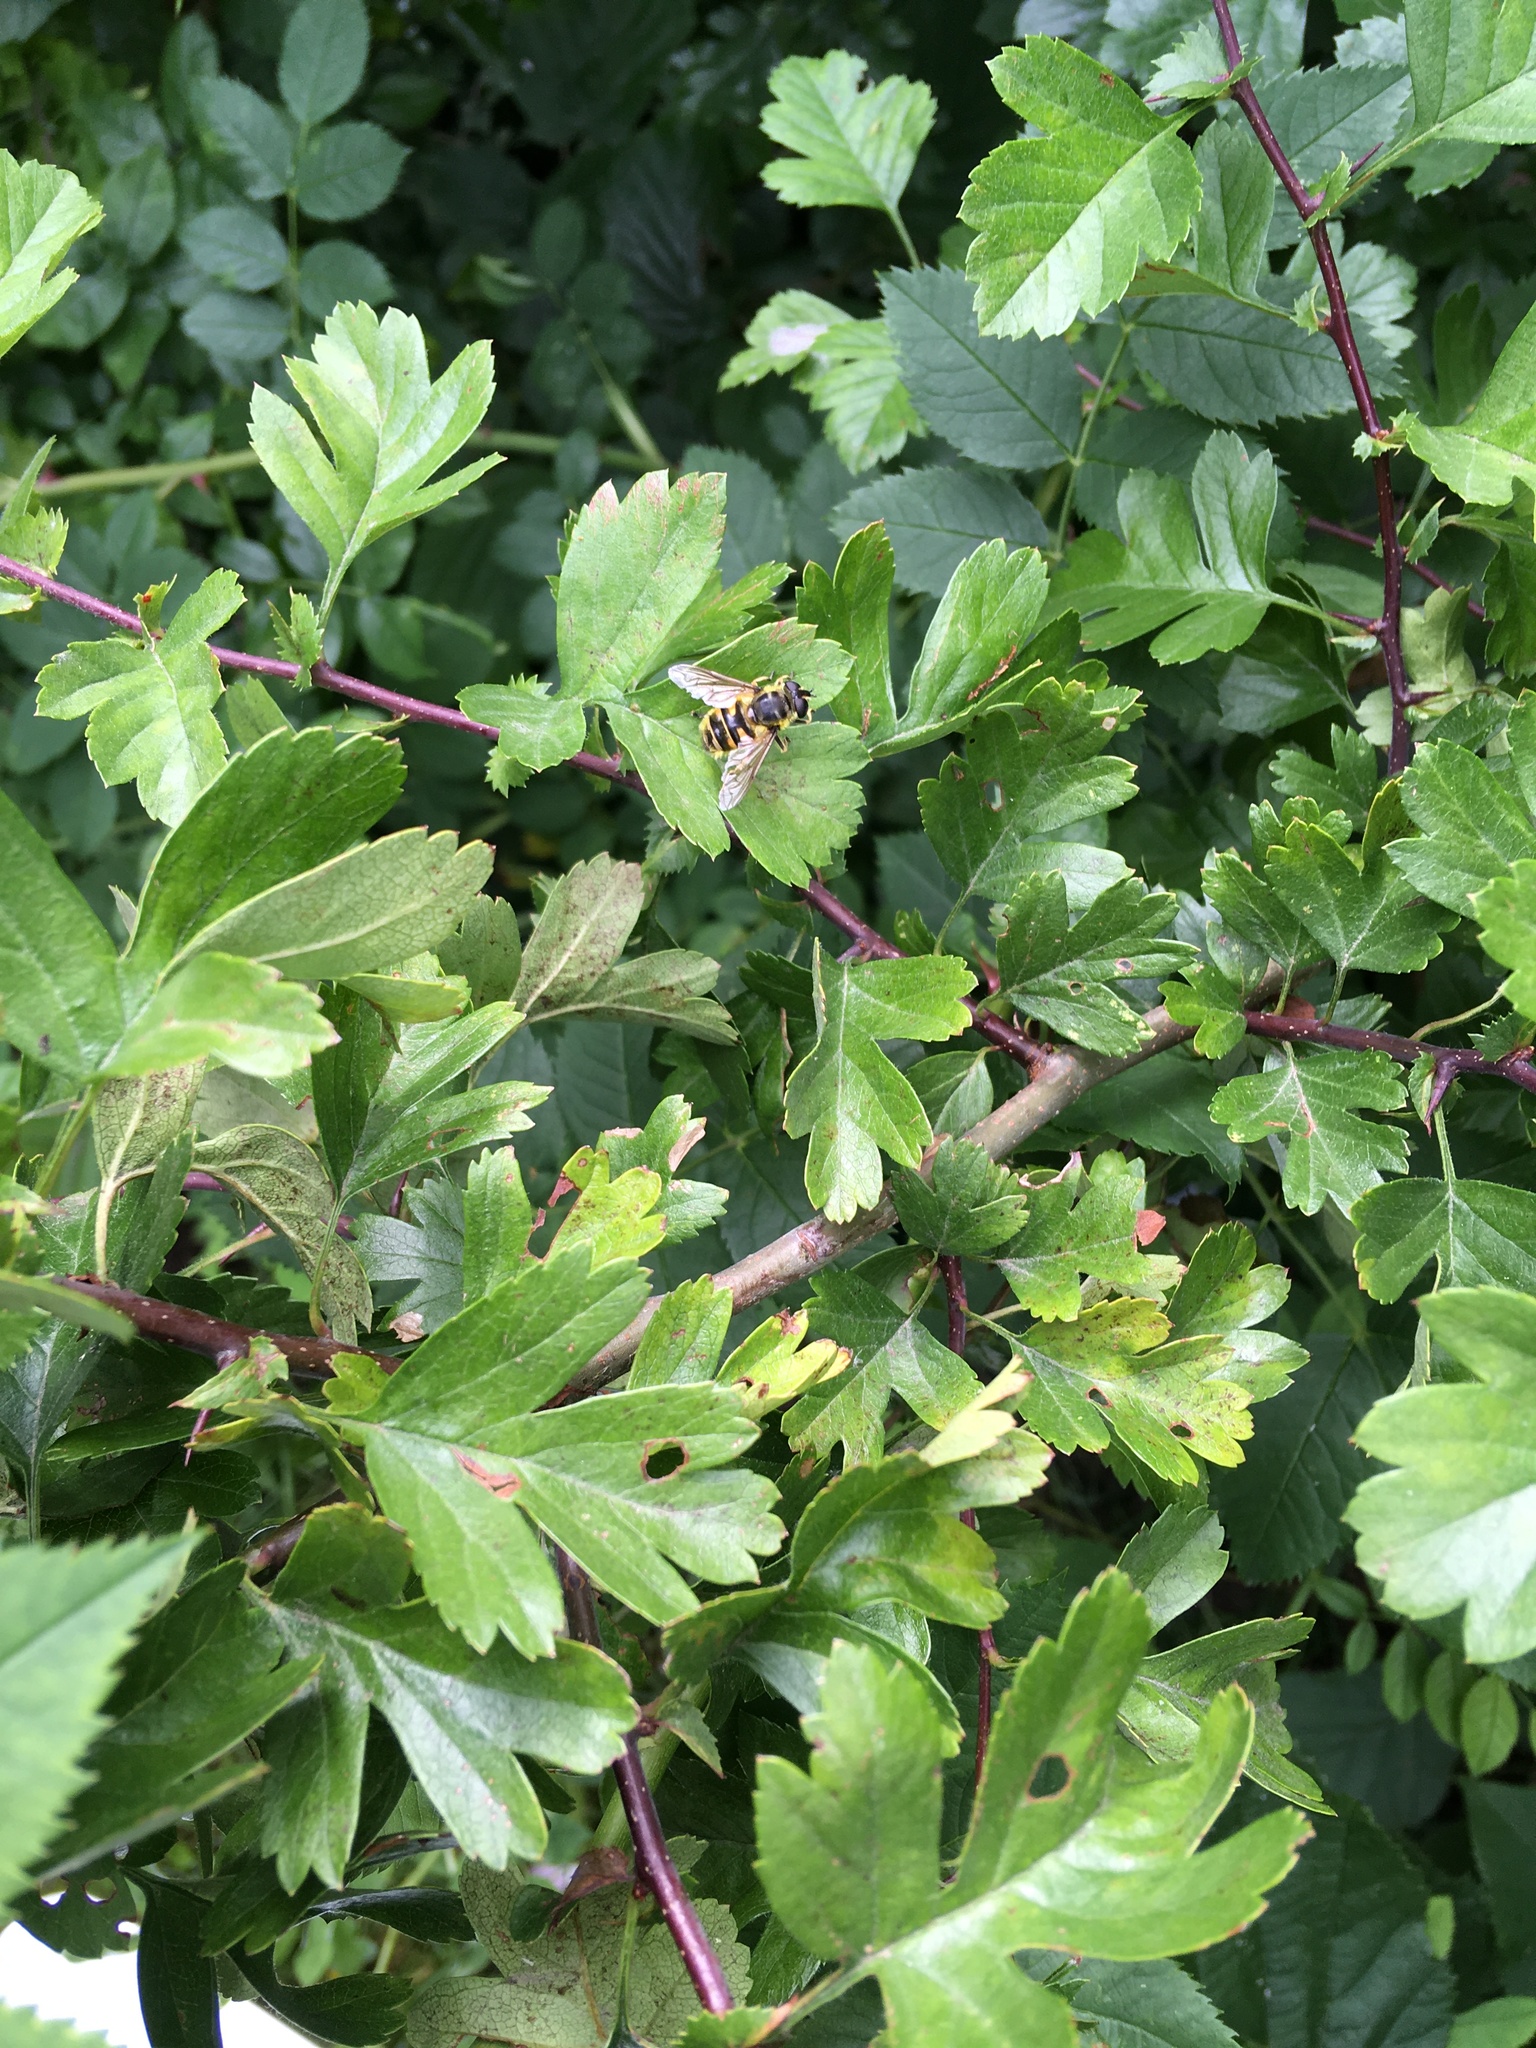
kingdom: Animalia
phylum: Arthropoda
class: Insecta
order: Diptera
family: Syrphidae
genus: Myathropa
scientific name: Myathropa florea
